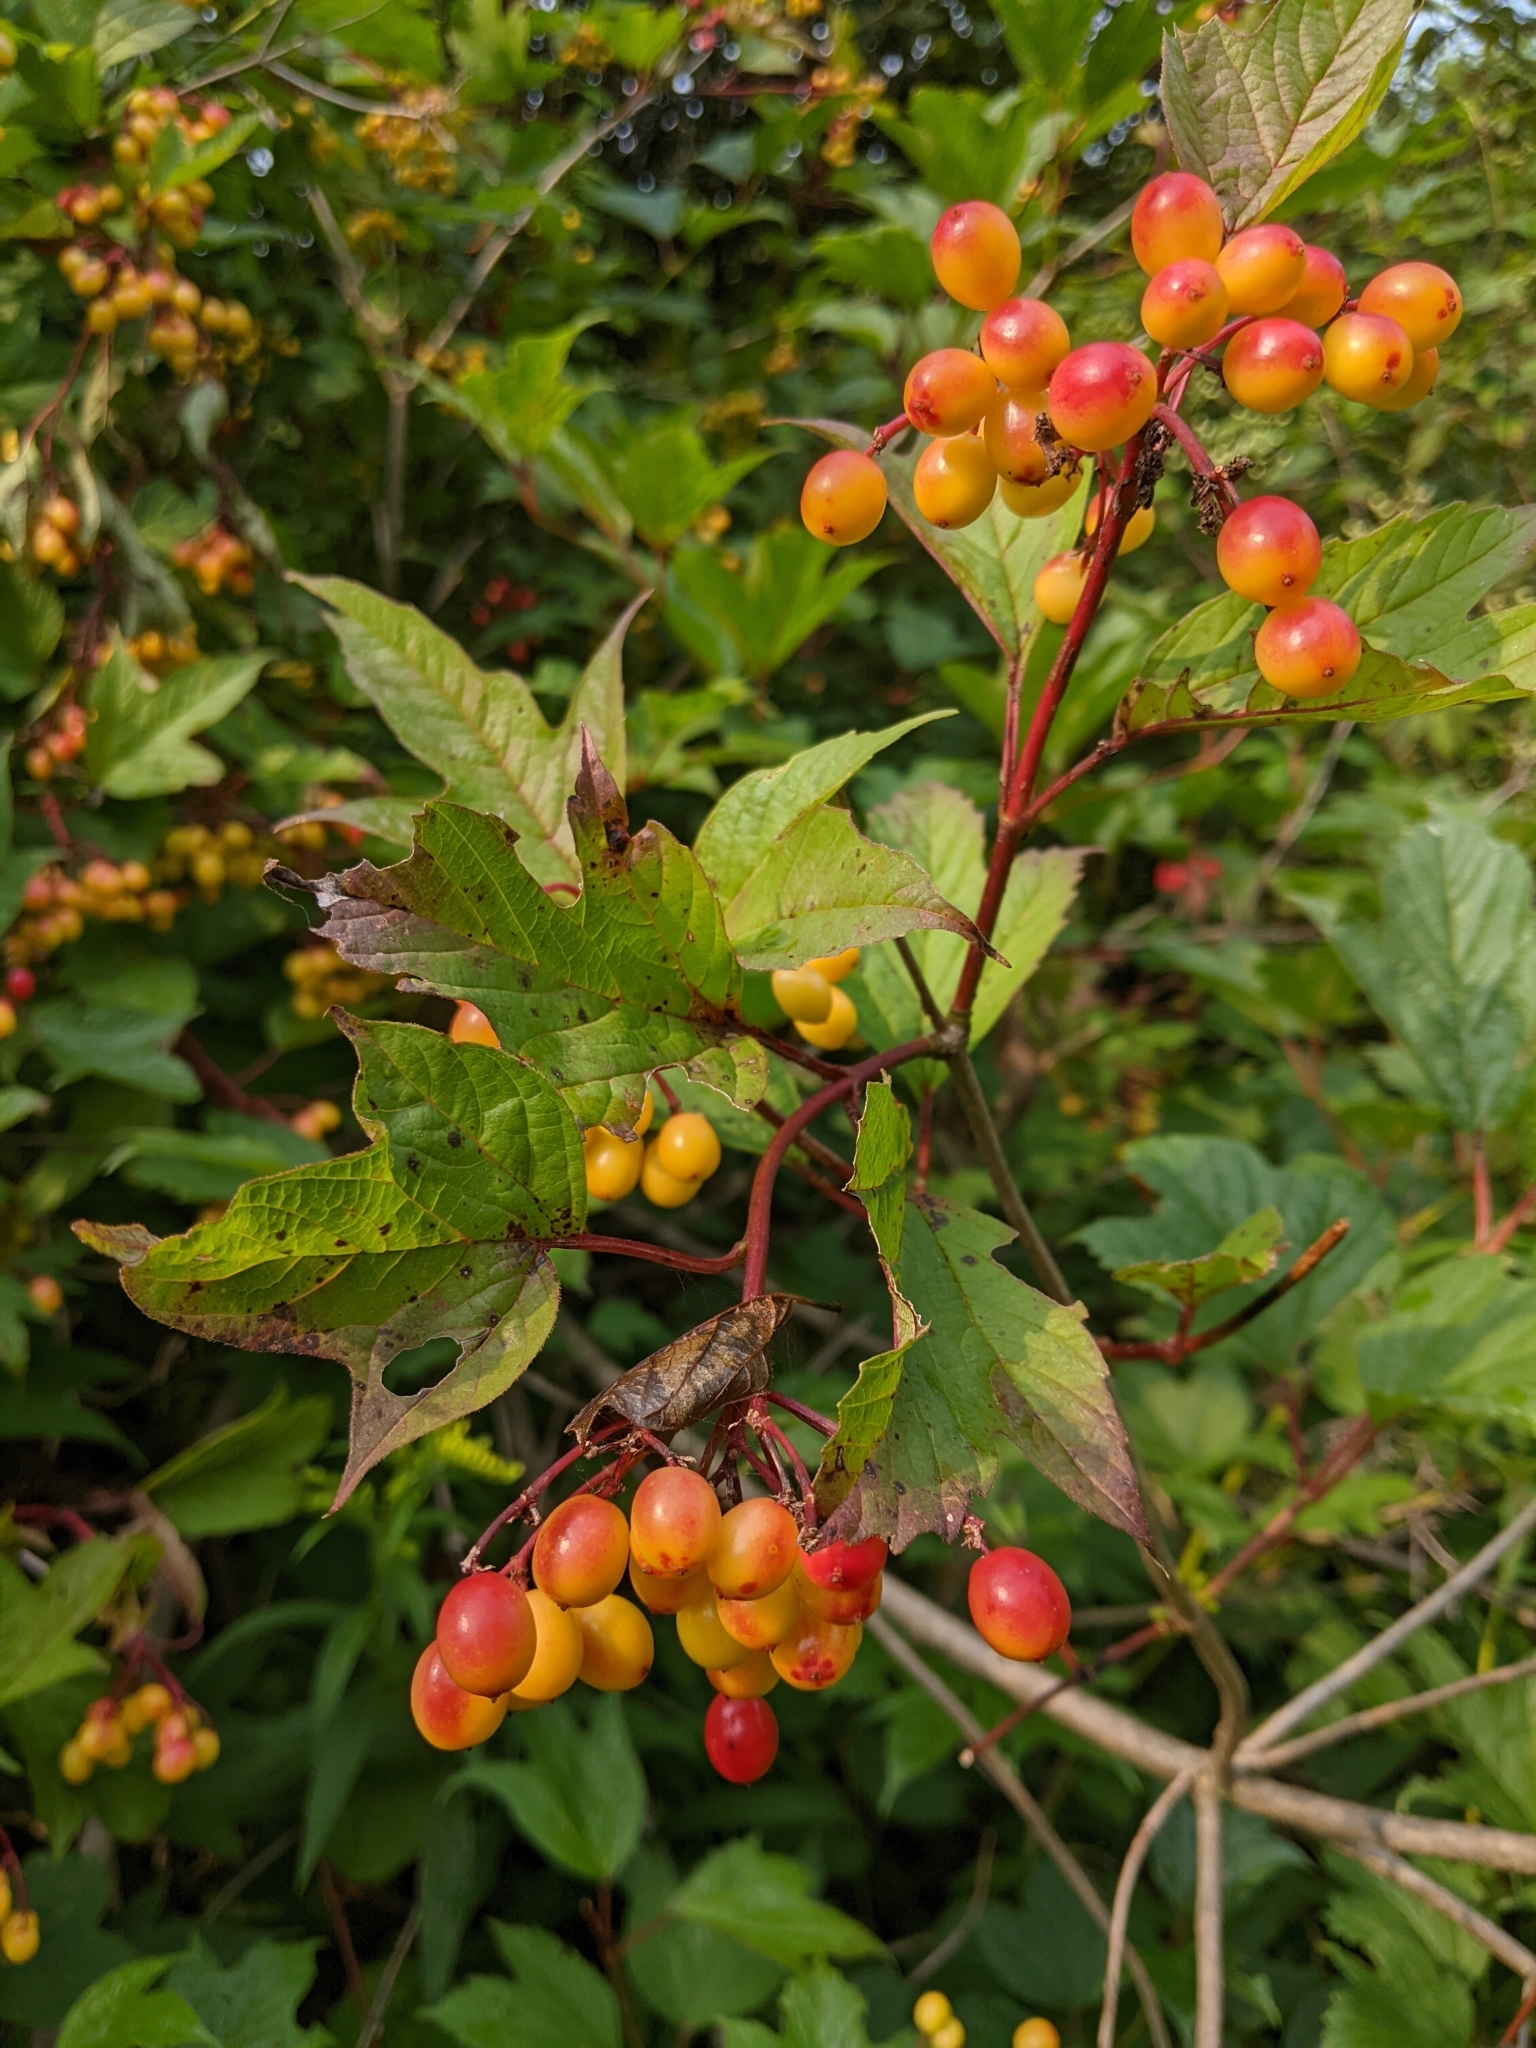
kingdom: Plantae
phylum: Tracheophyta
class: Magnoliopsida
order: Dipsacales
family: Viburnaceae
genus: Viburnum
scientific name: Viburnum trilobum
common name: American cranberrybush
